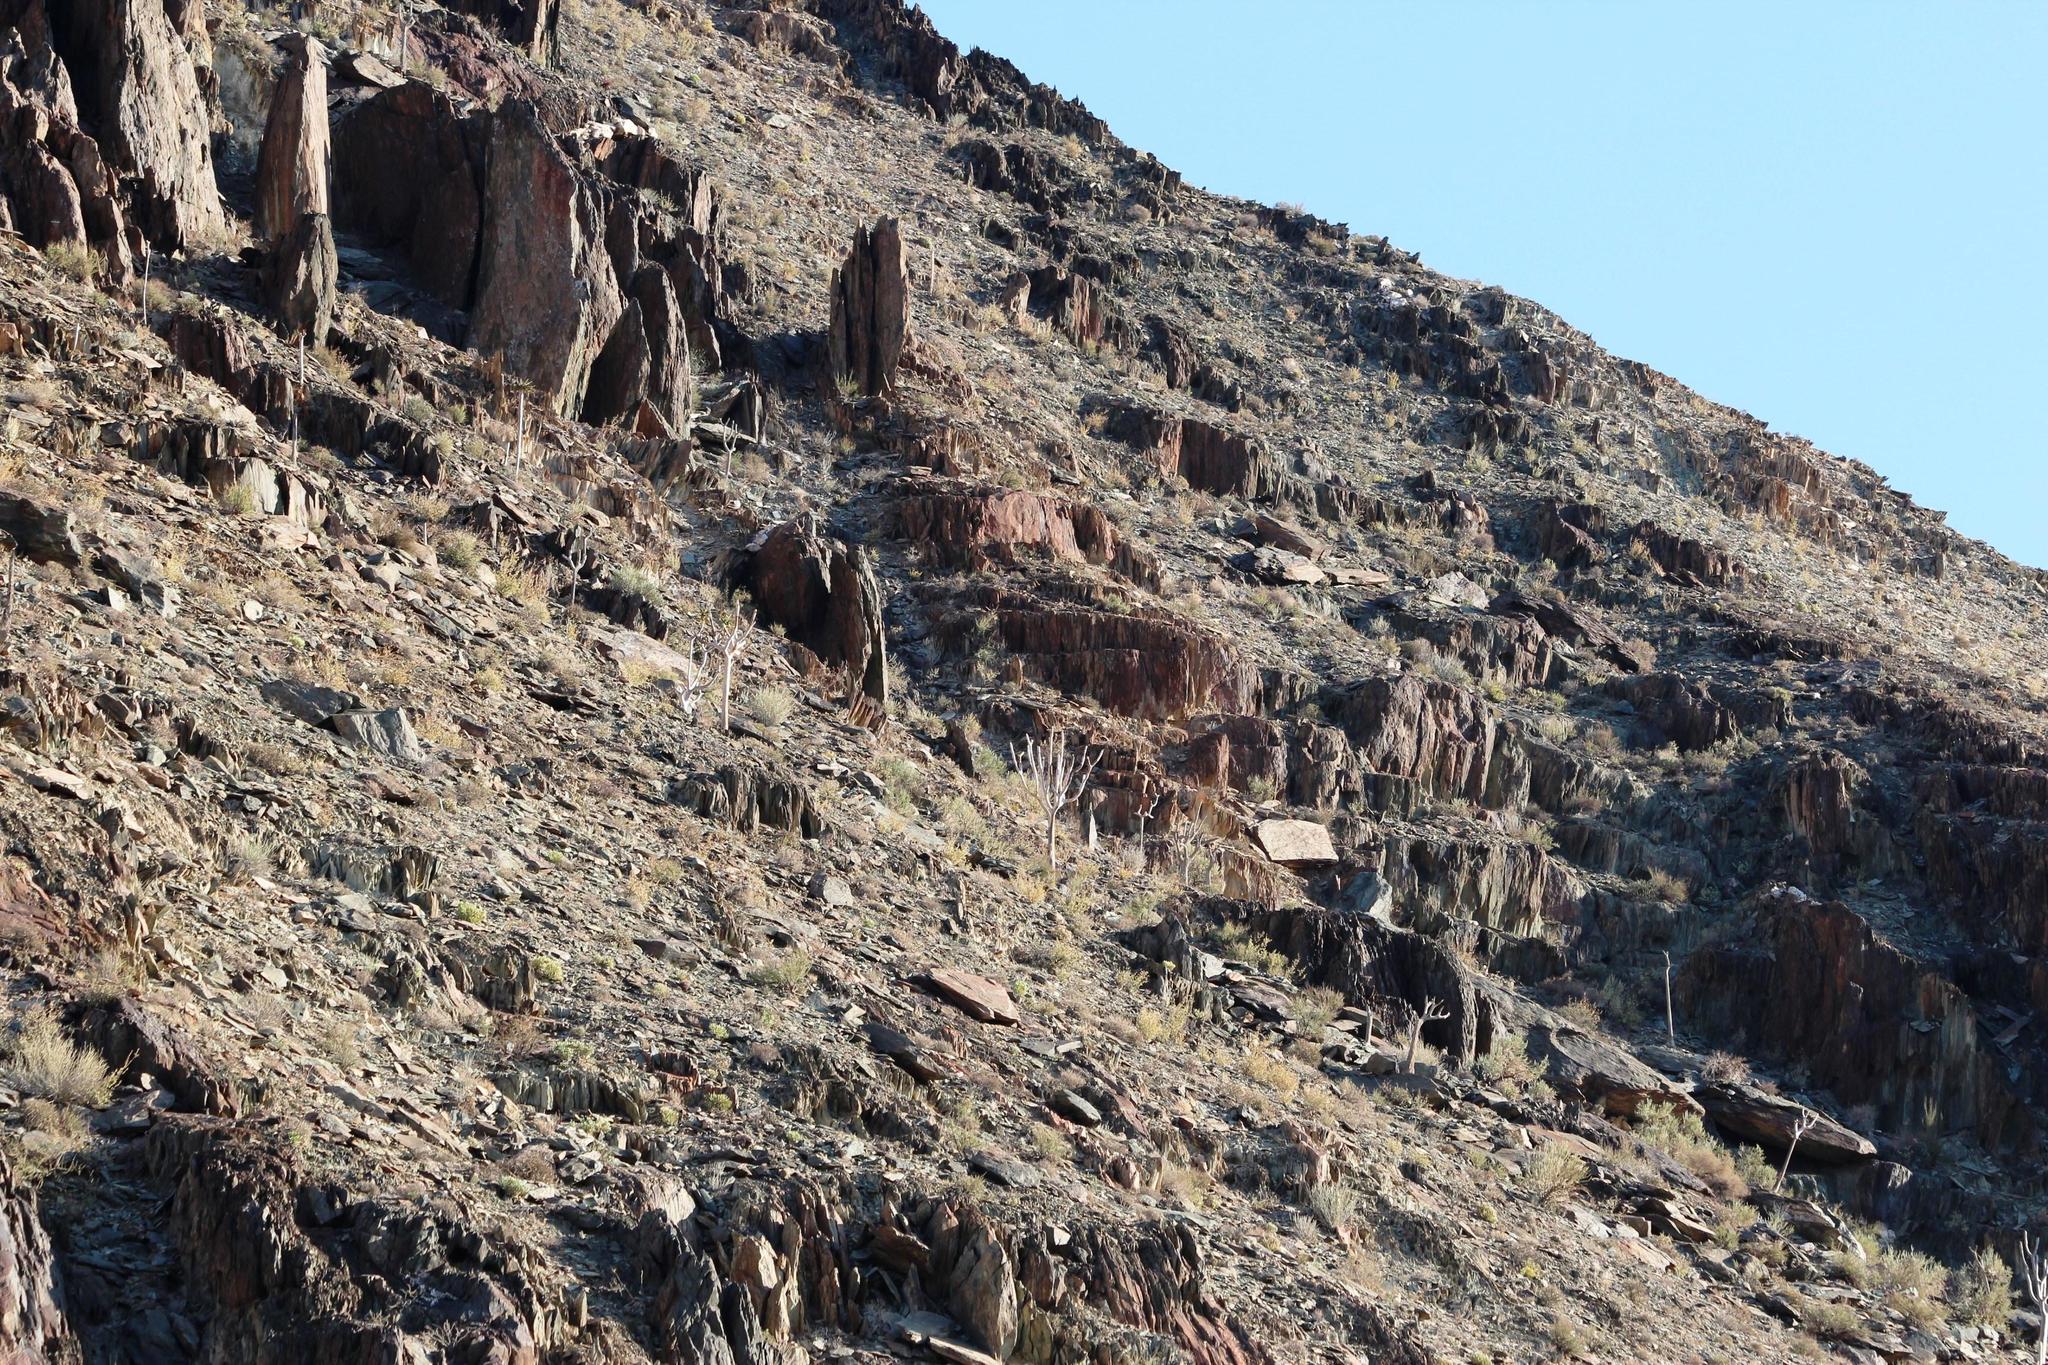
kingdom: Plantae
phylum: Tracheophyta
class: Liliopsida
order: Asparagales
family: Asphodelaceae
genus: Aloidendron
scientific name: Aloidendron dichotomum
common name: Quiver tree
